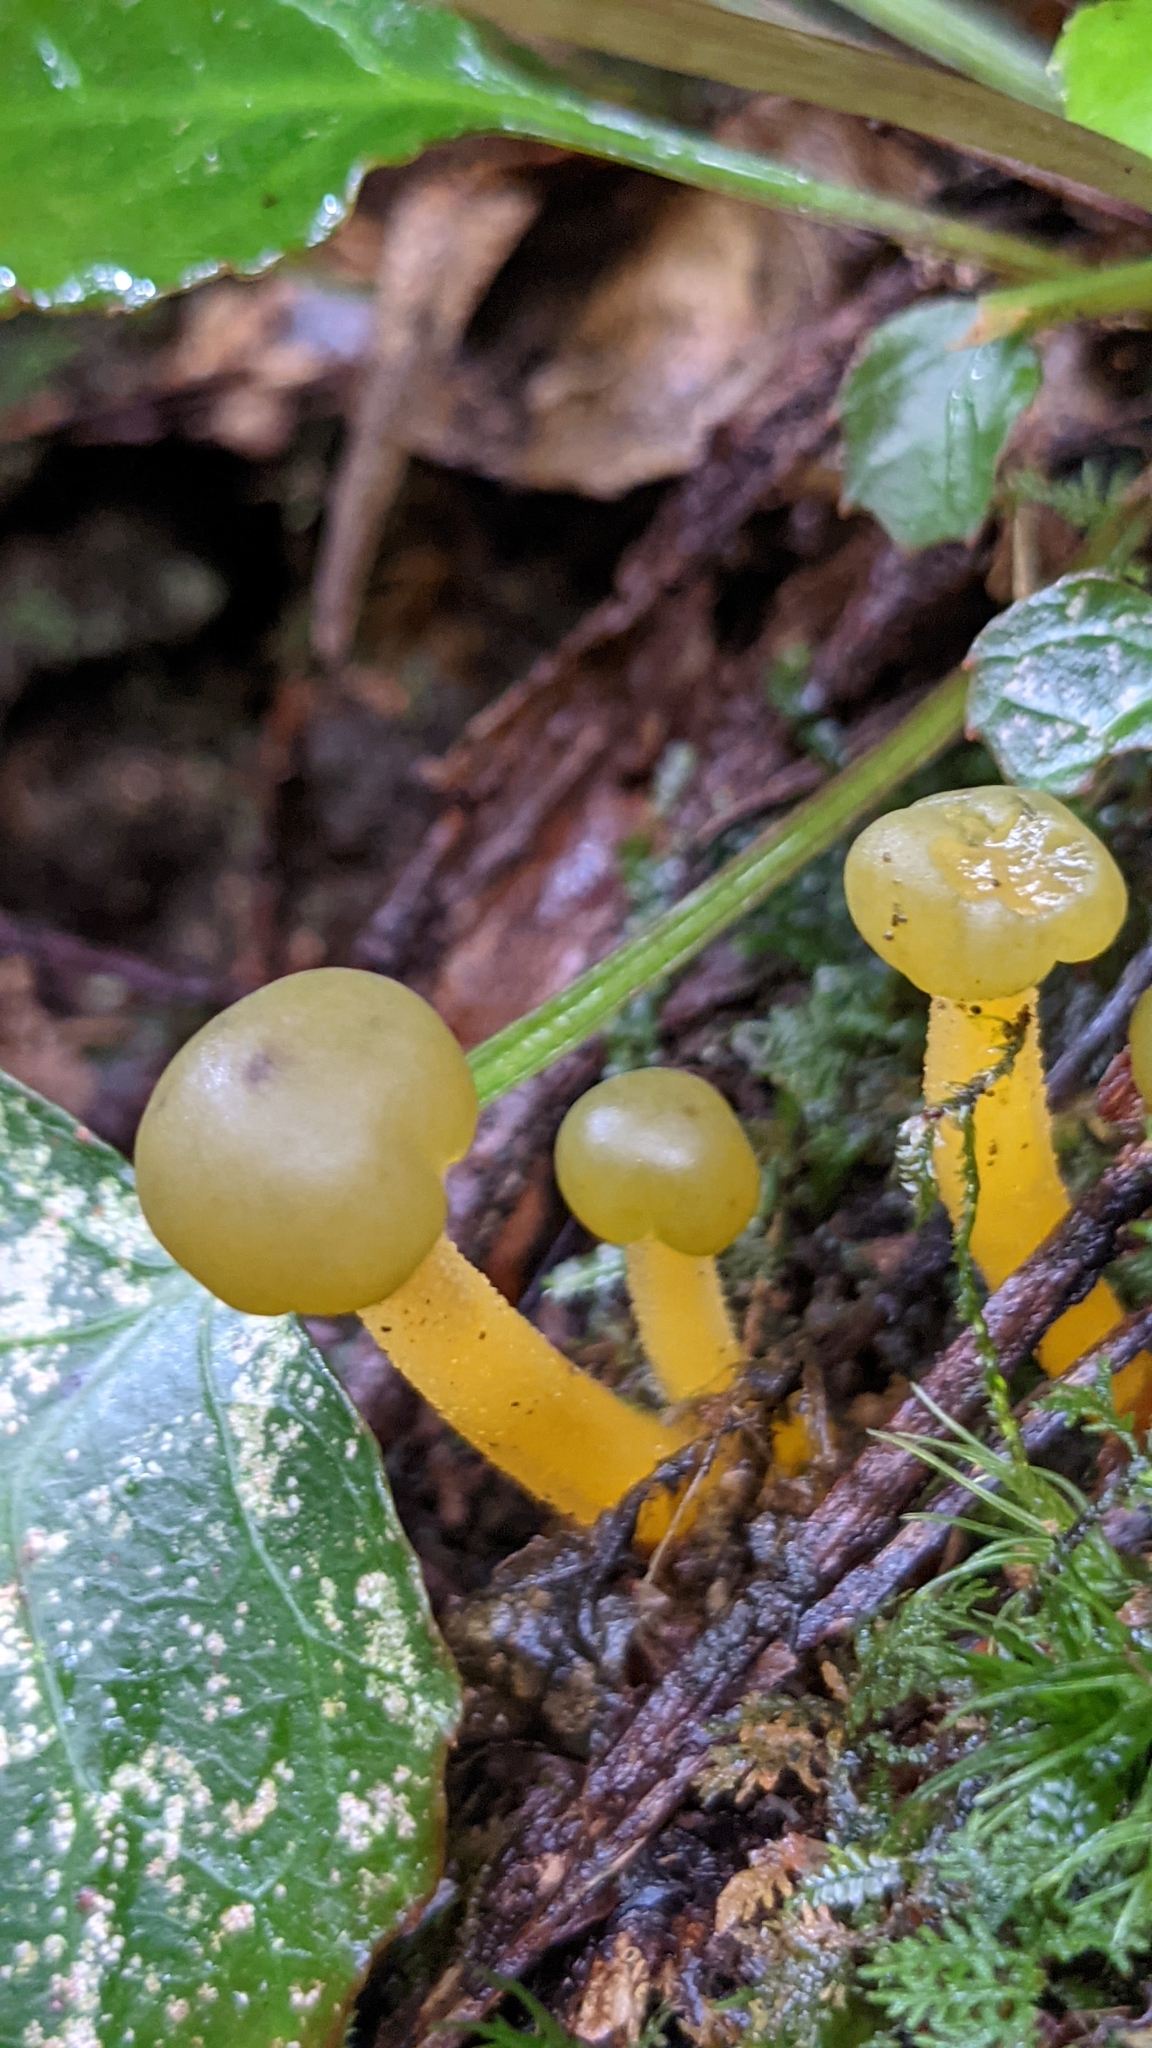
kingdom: Fungi
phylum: Ascomycota
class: Leotiomycetes
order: Leotiales
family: Leotiaceae
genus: Leotia
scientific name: Leotia lubrica
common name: Jellybaby
